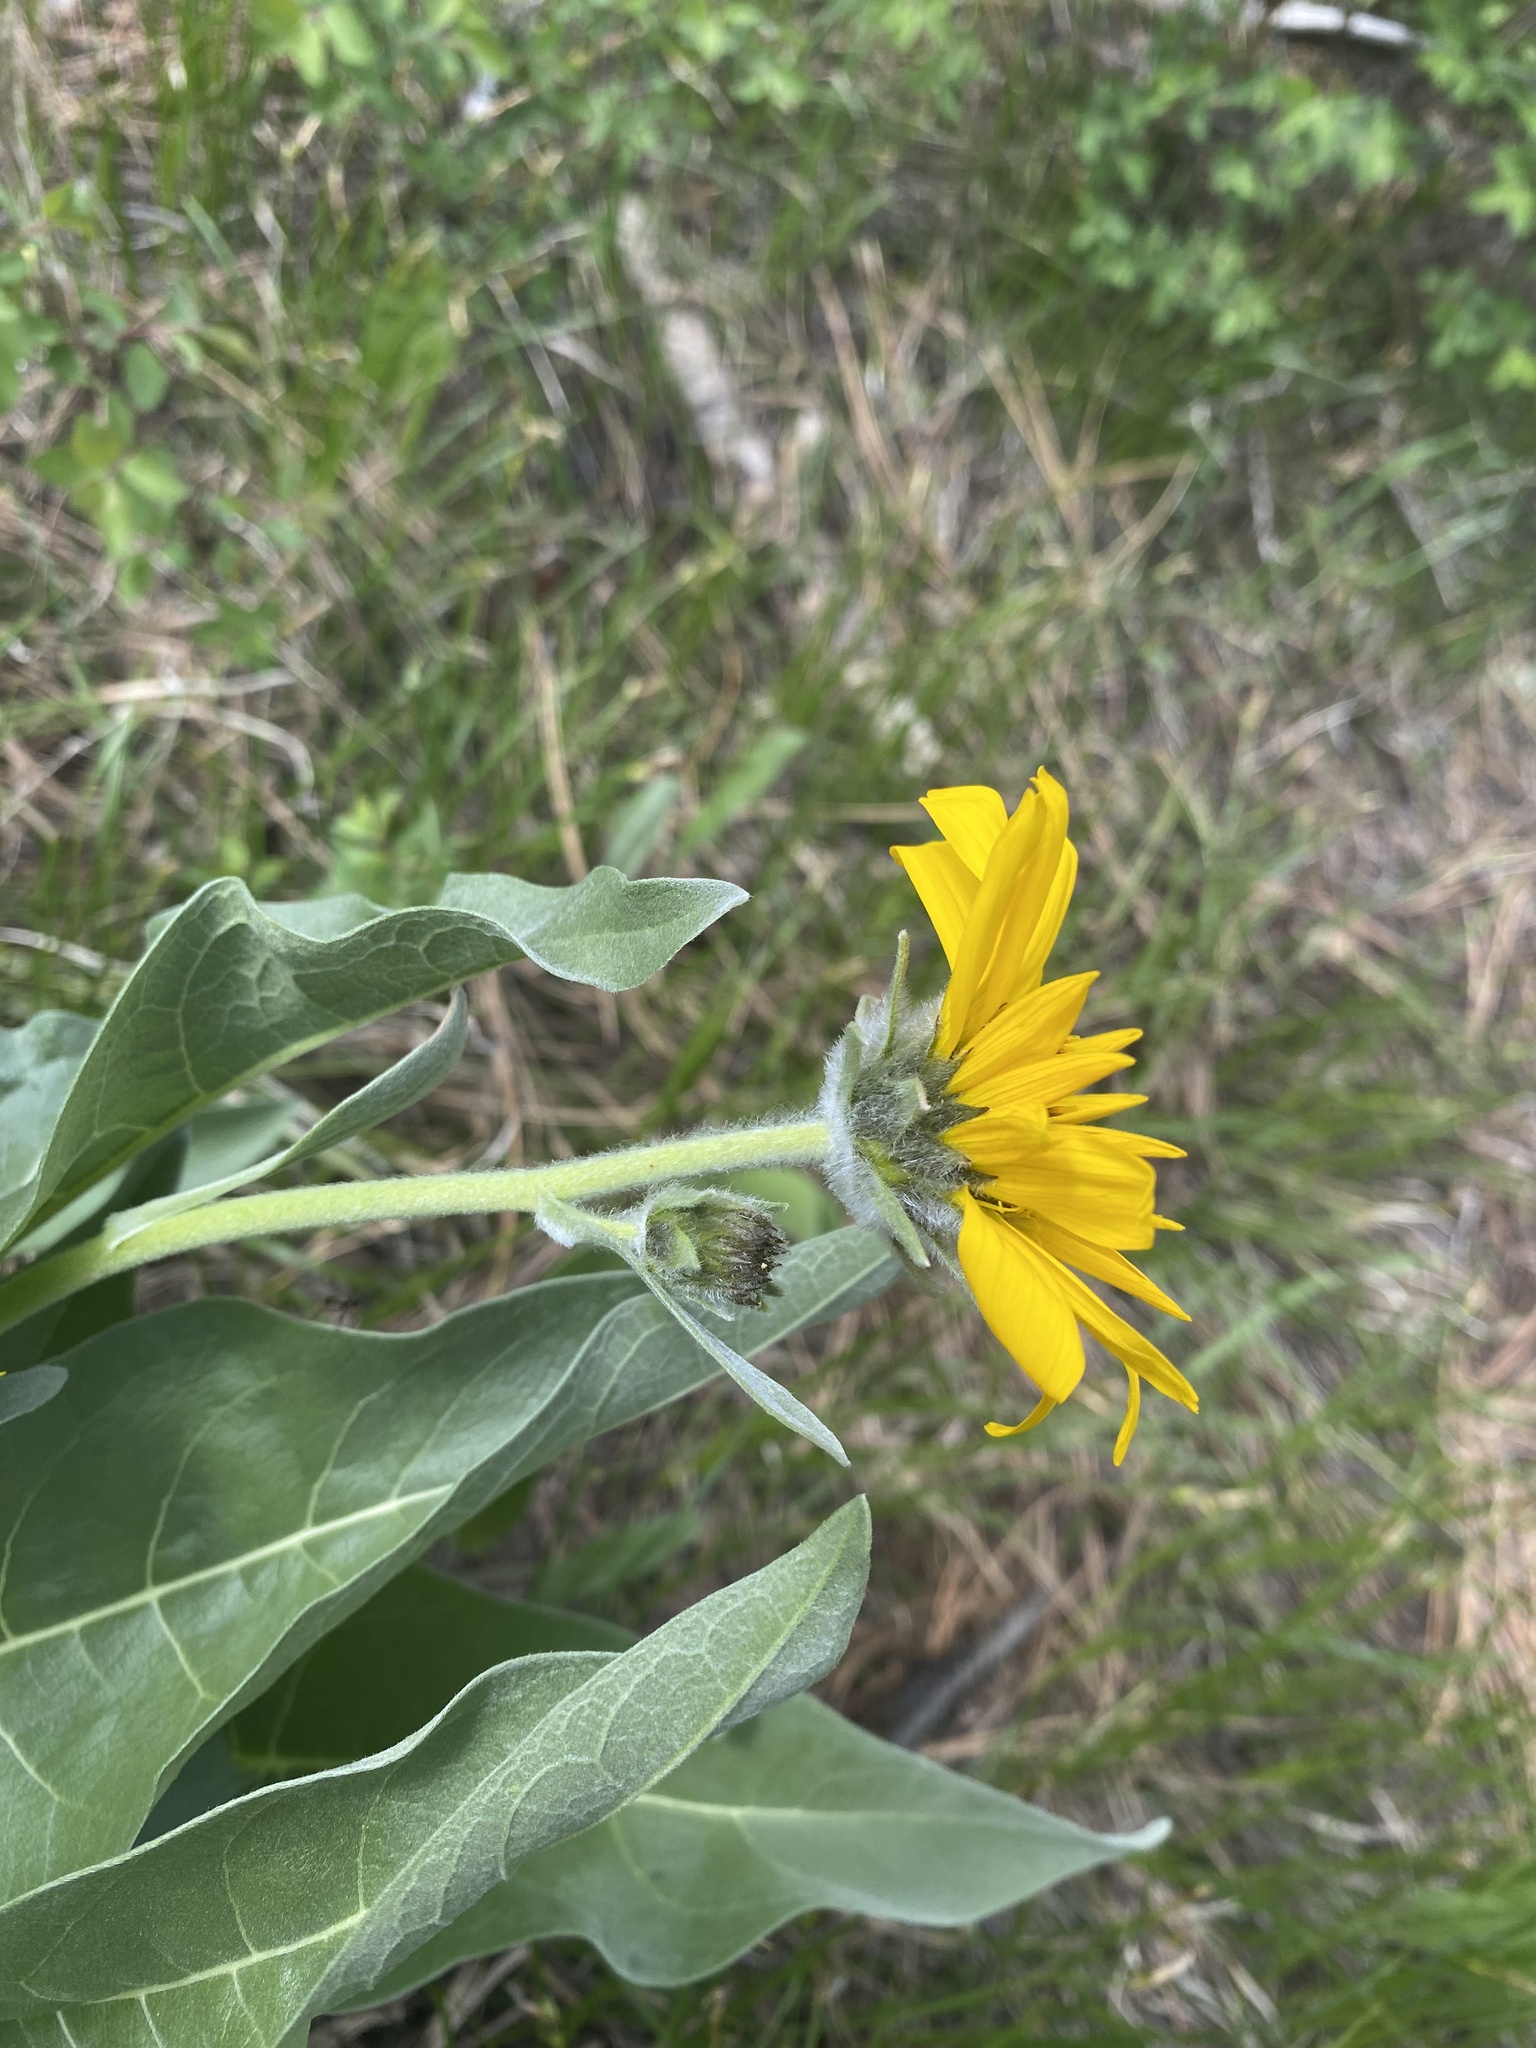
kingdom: Plantae
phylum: Tracheophyta
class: Magnoliopsida
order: Asterales
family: Asteraceae
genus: Wyethia
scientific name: Wyethia sagittata
